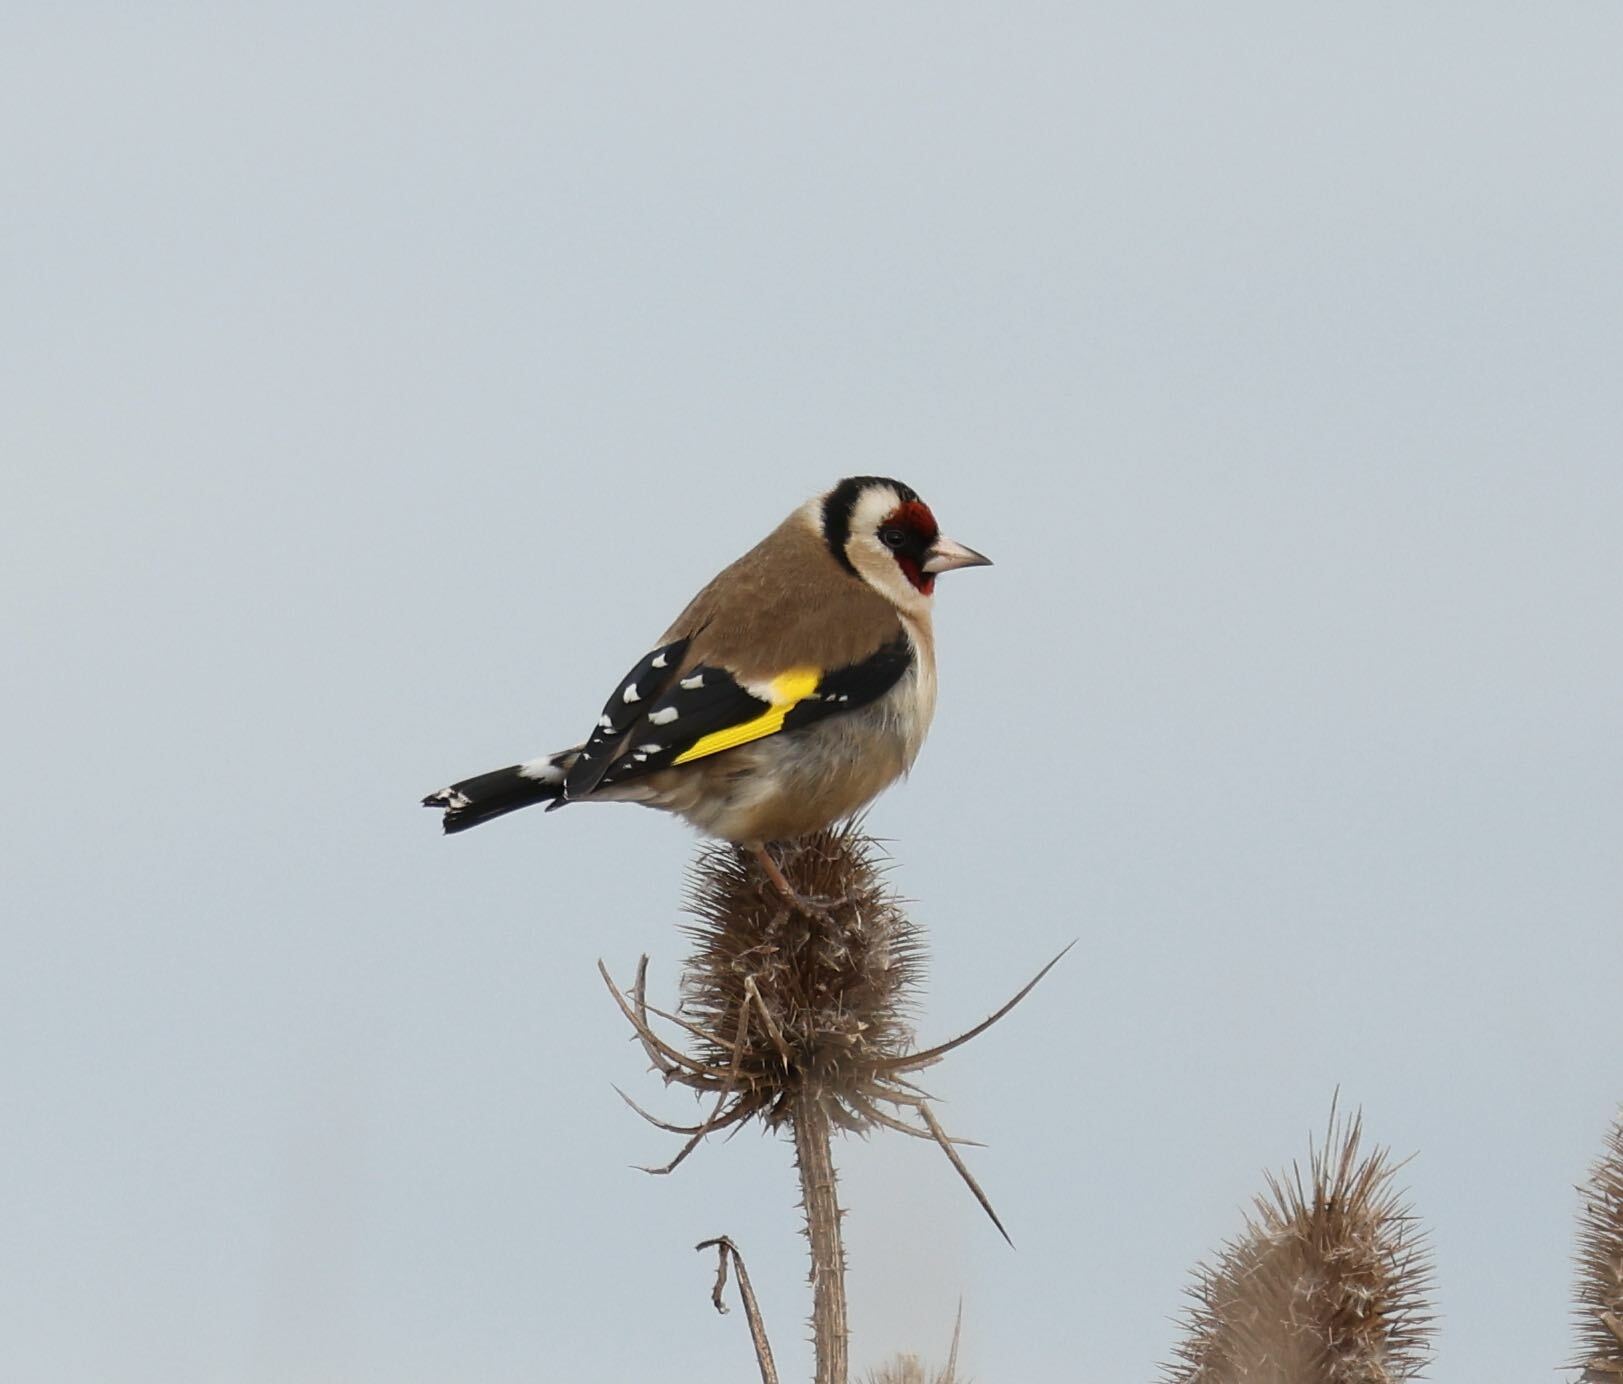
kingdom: Animalia
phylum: Chordata
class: Aves
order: Passeriformes
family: Fringillidae
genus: Carduelis
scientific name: Carduelis carduelis
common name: European goldfinch
